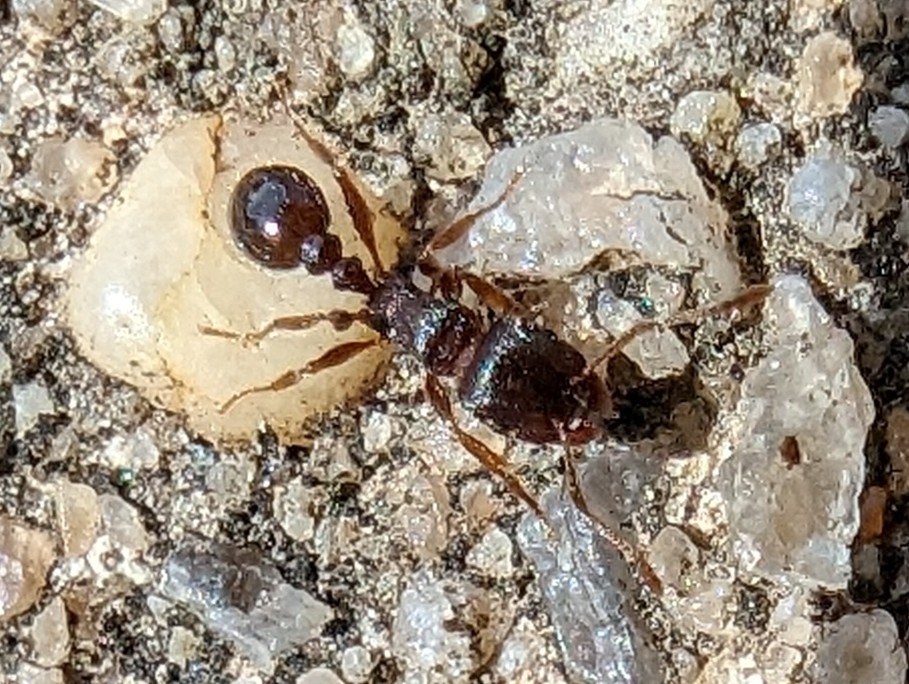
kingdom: Animalia
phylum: Arthropoda
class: Insecta
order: Hymenoptera
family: Formicidae
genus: Tetramorium
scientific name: Tetramorium immigrans
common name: Pavement ant
